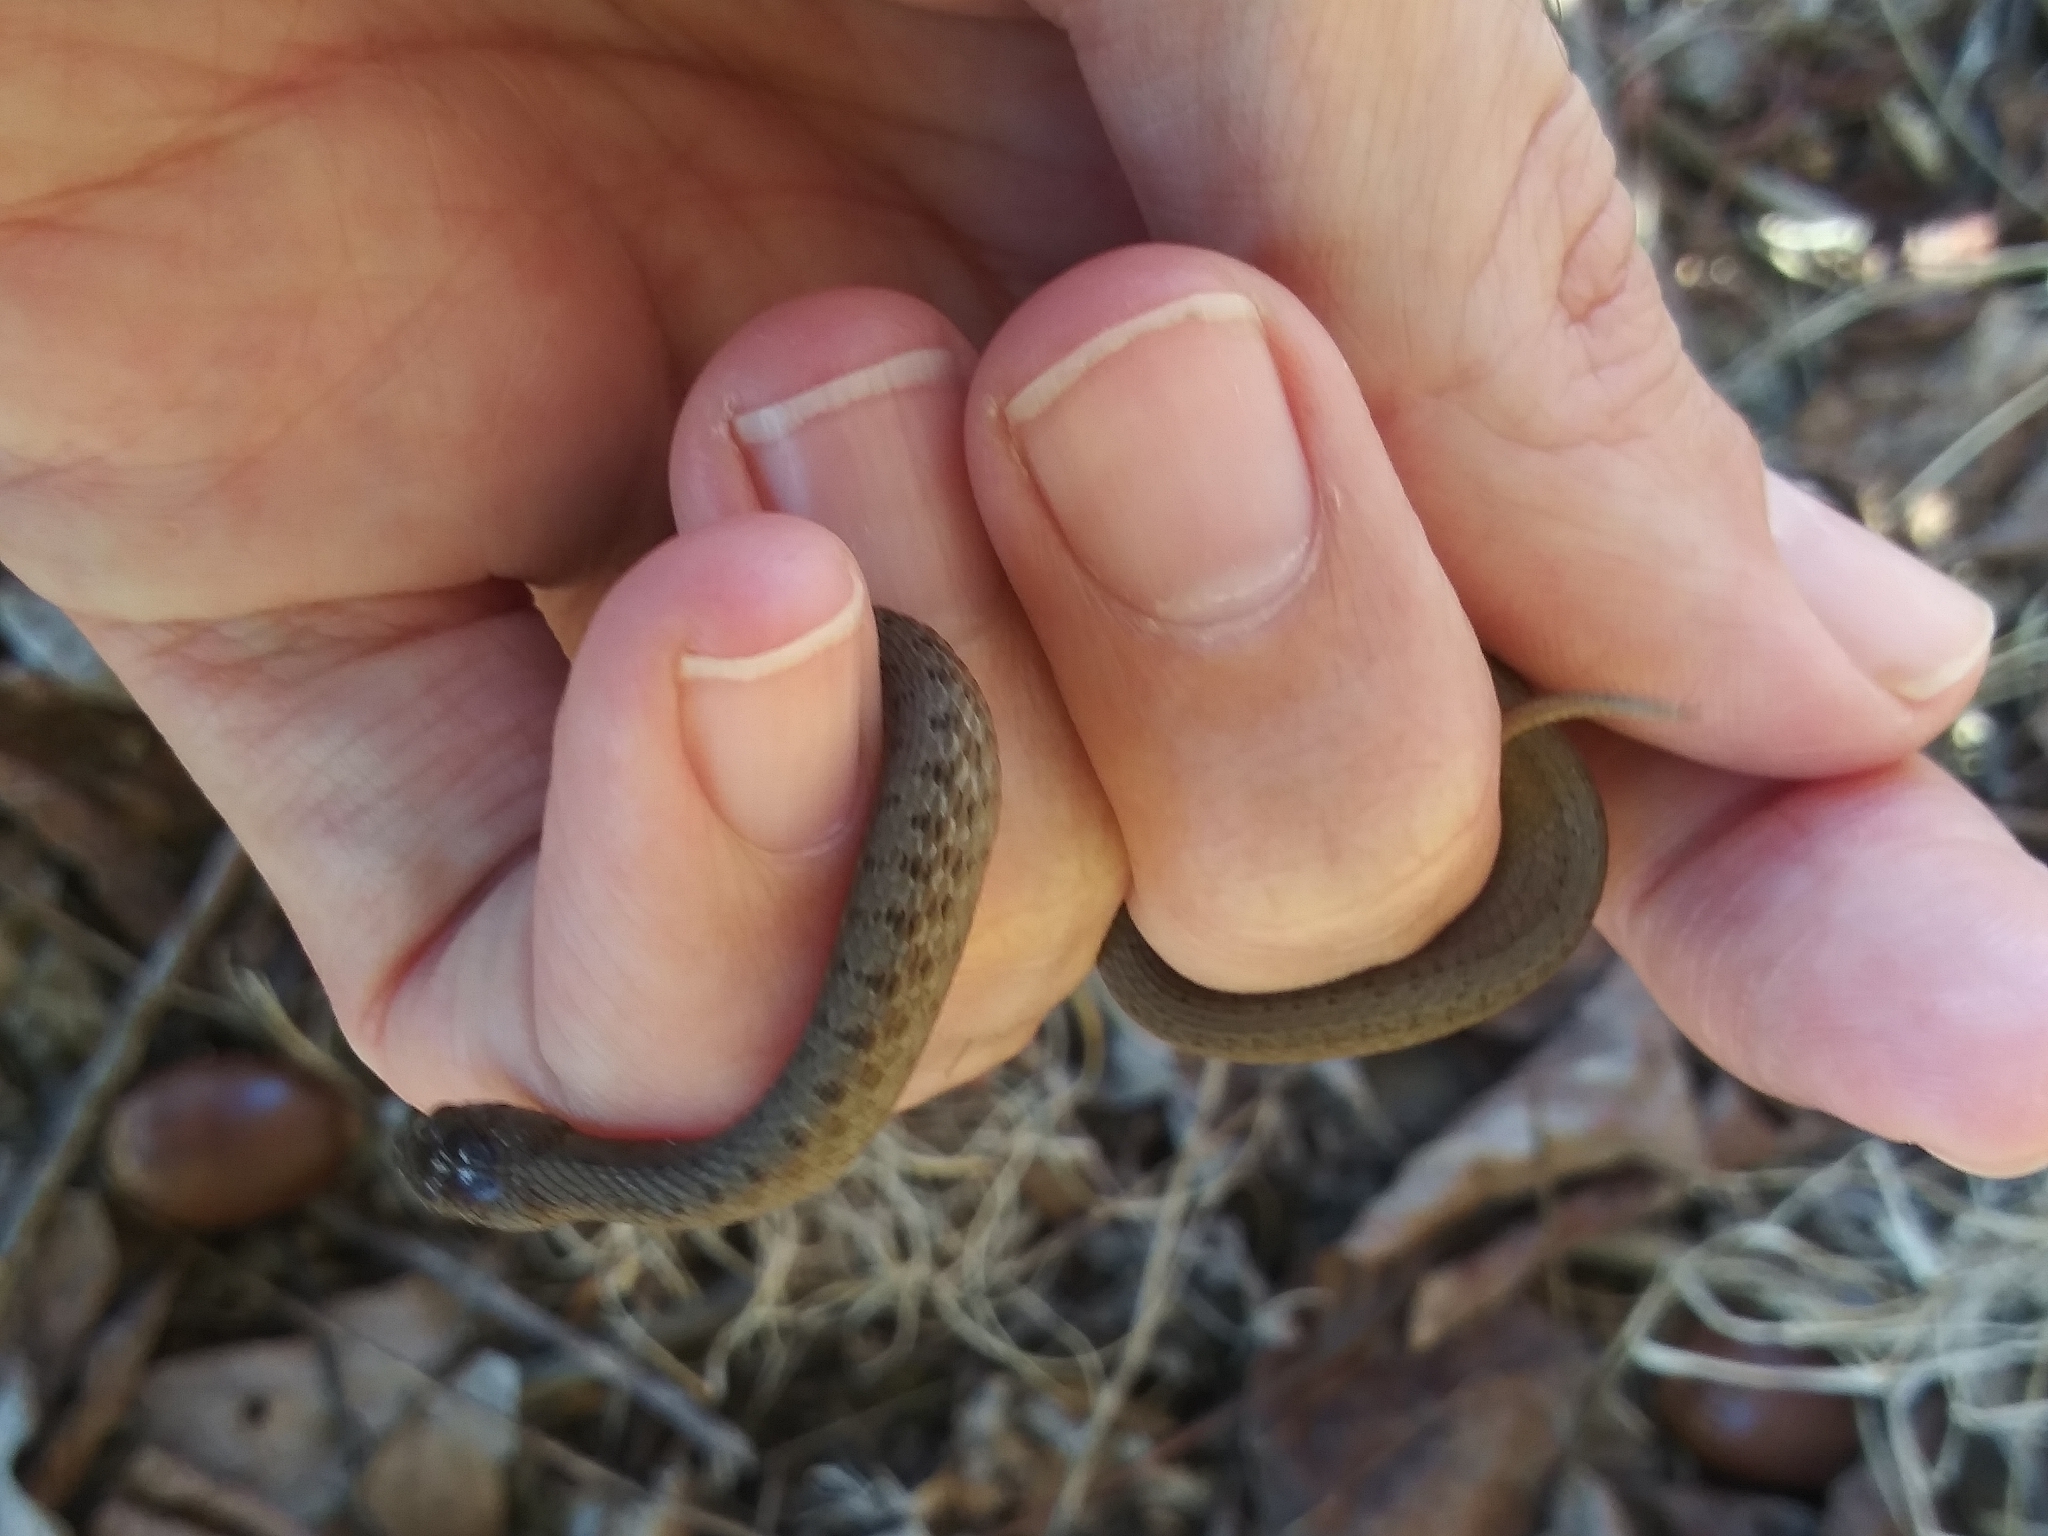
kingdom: Animalia
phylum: Chordata
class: Squamata
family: Colubridae
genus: Storeria
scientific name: Storeria dekayi
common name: (dekay’s) brown snake
